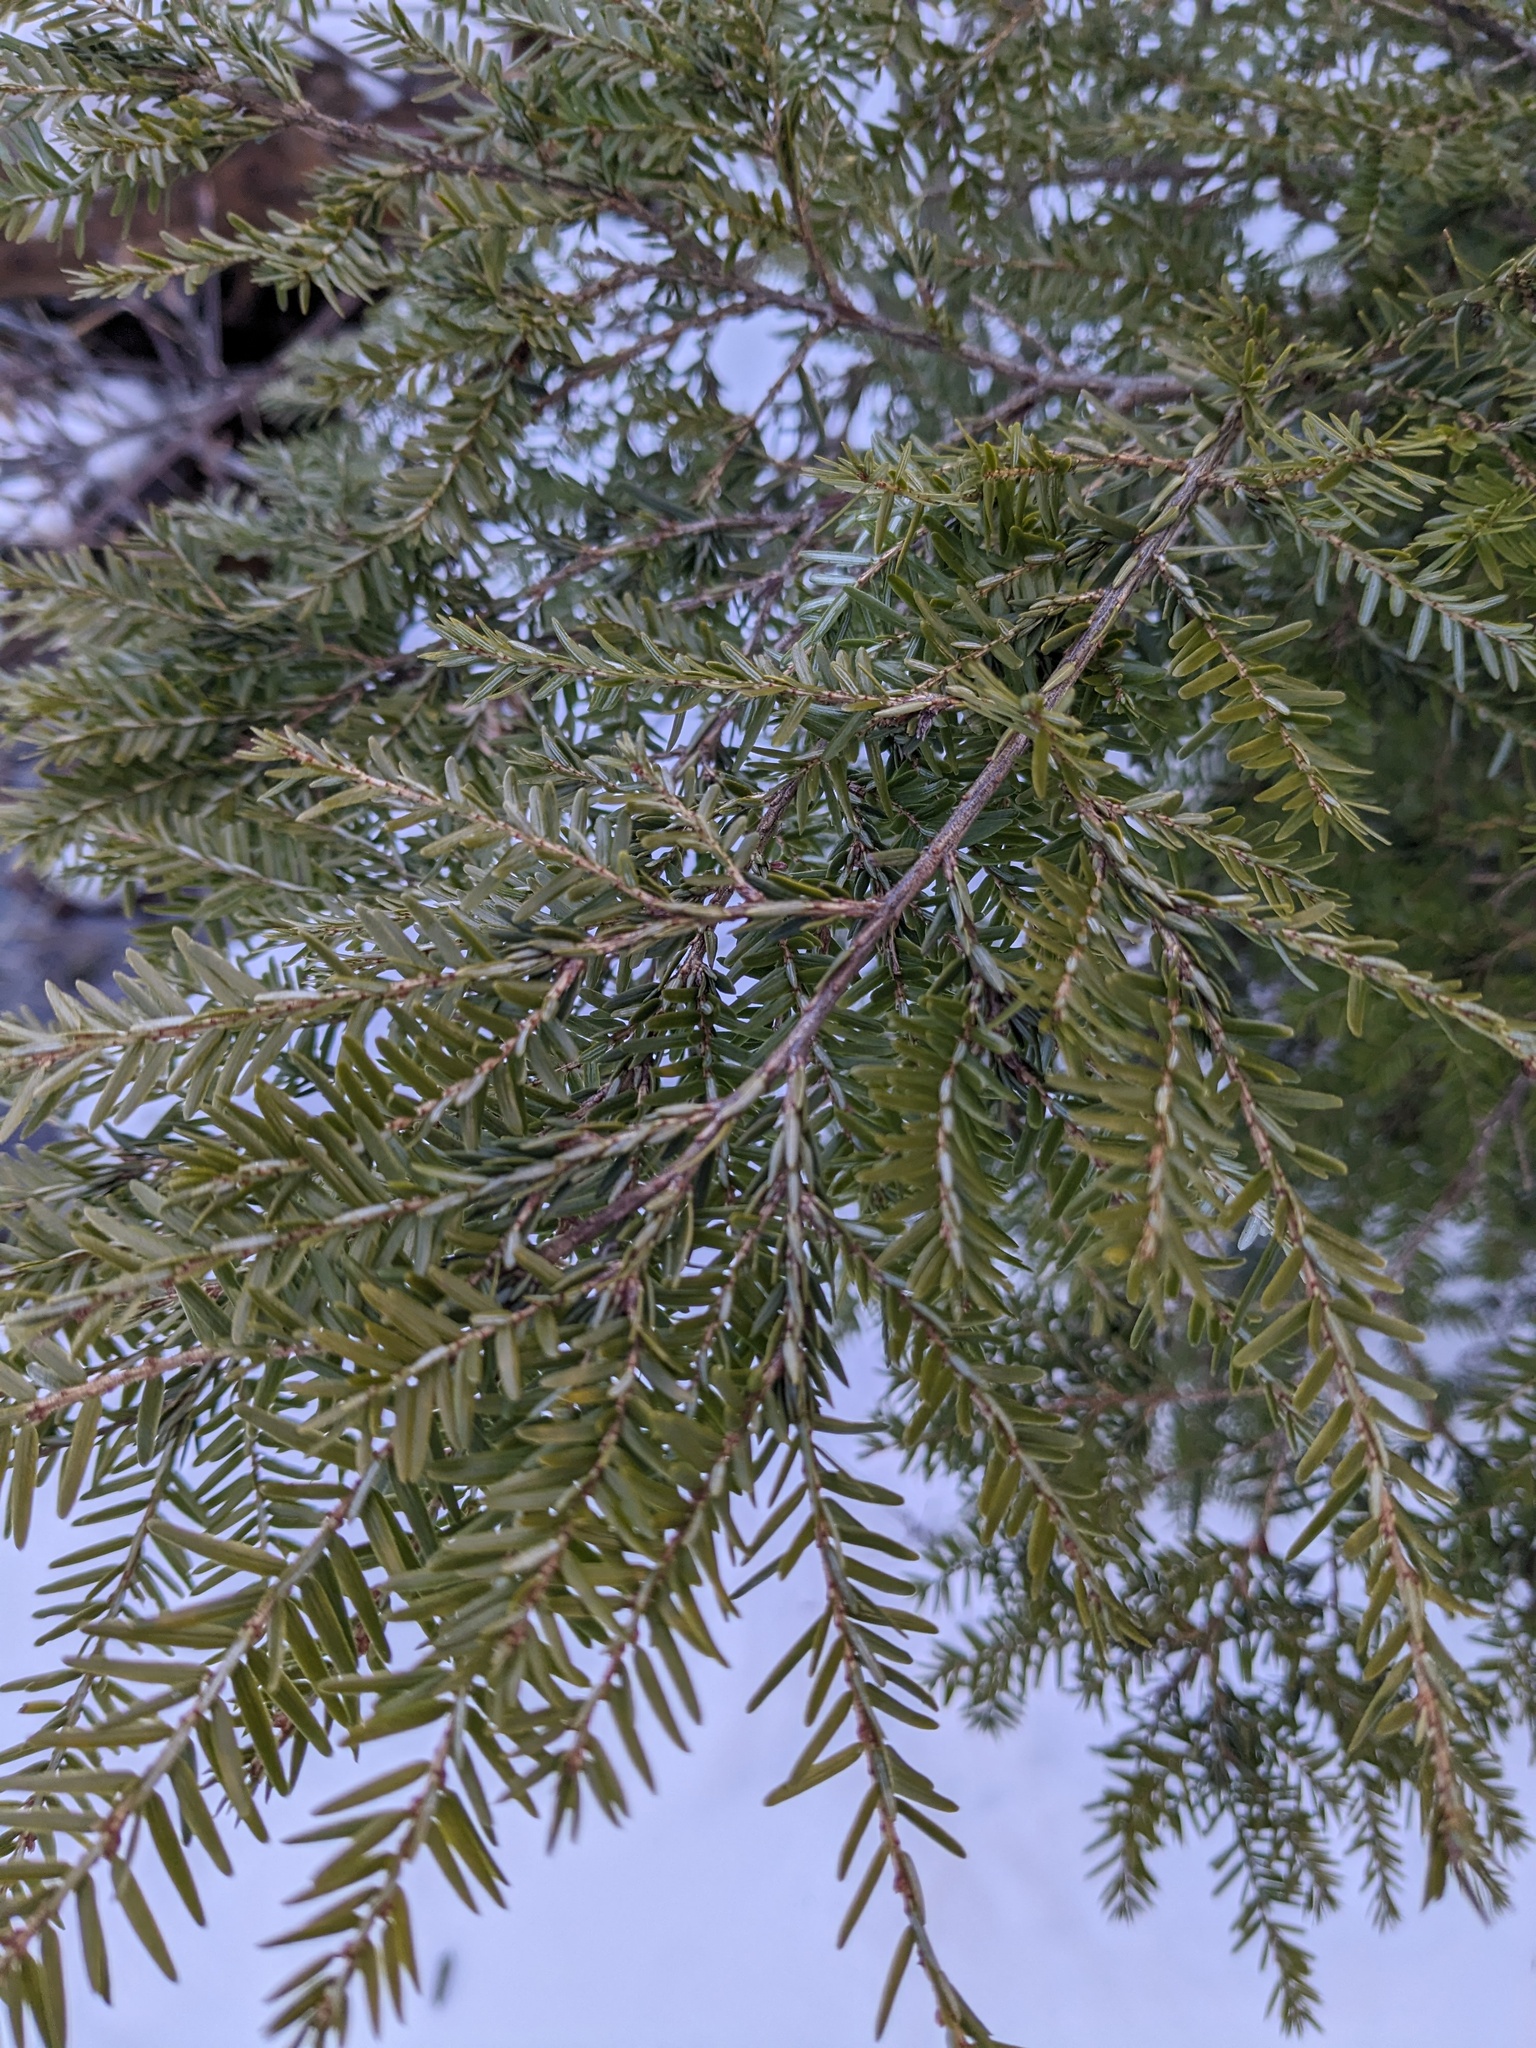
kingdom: Plantae
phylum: Tracheophyta
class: Pinopsida
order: Pinales
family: Pinaceae
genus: Tsuga
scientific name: Tsuga canadensis
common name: Eastern hemlock
